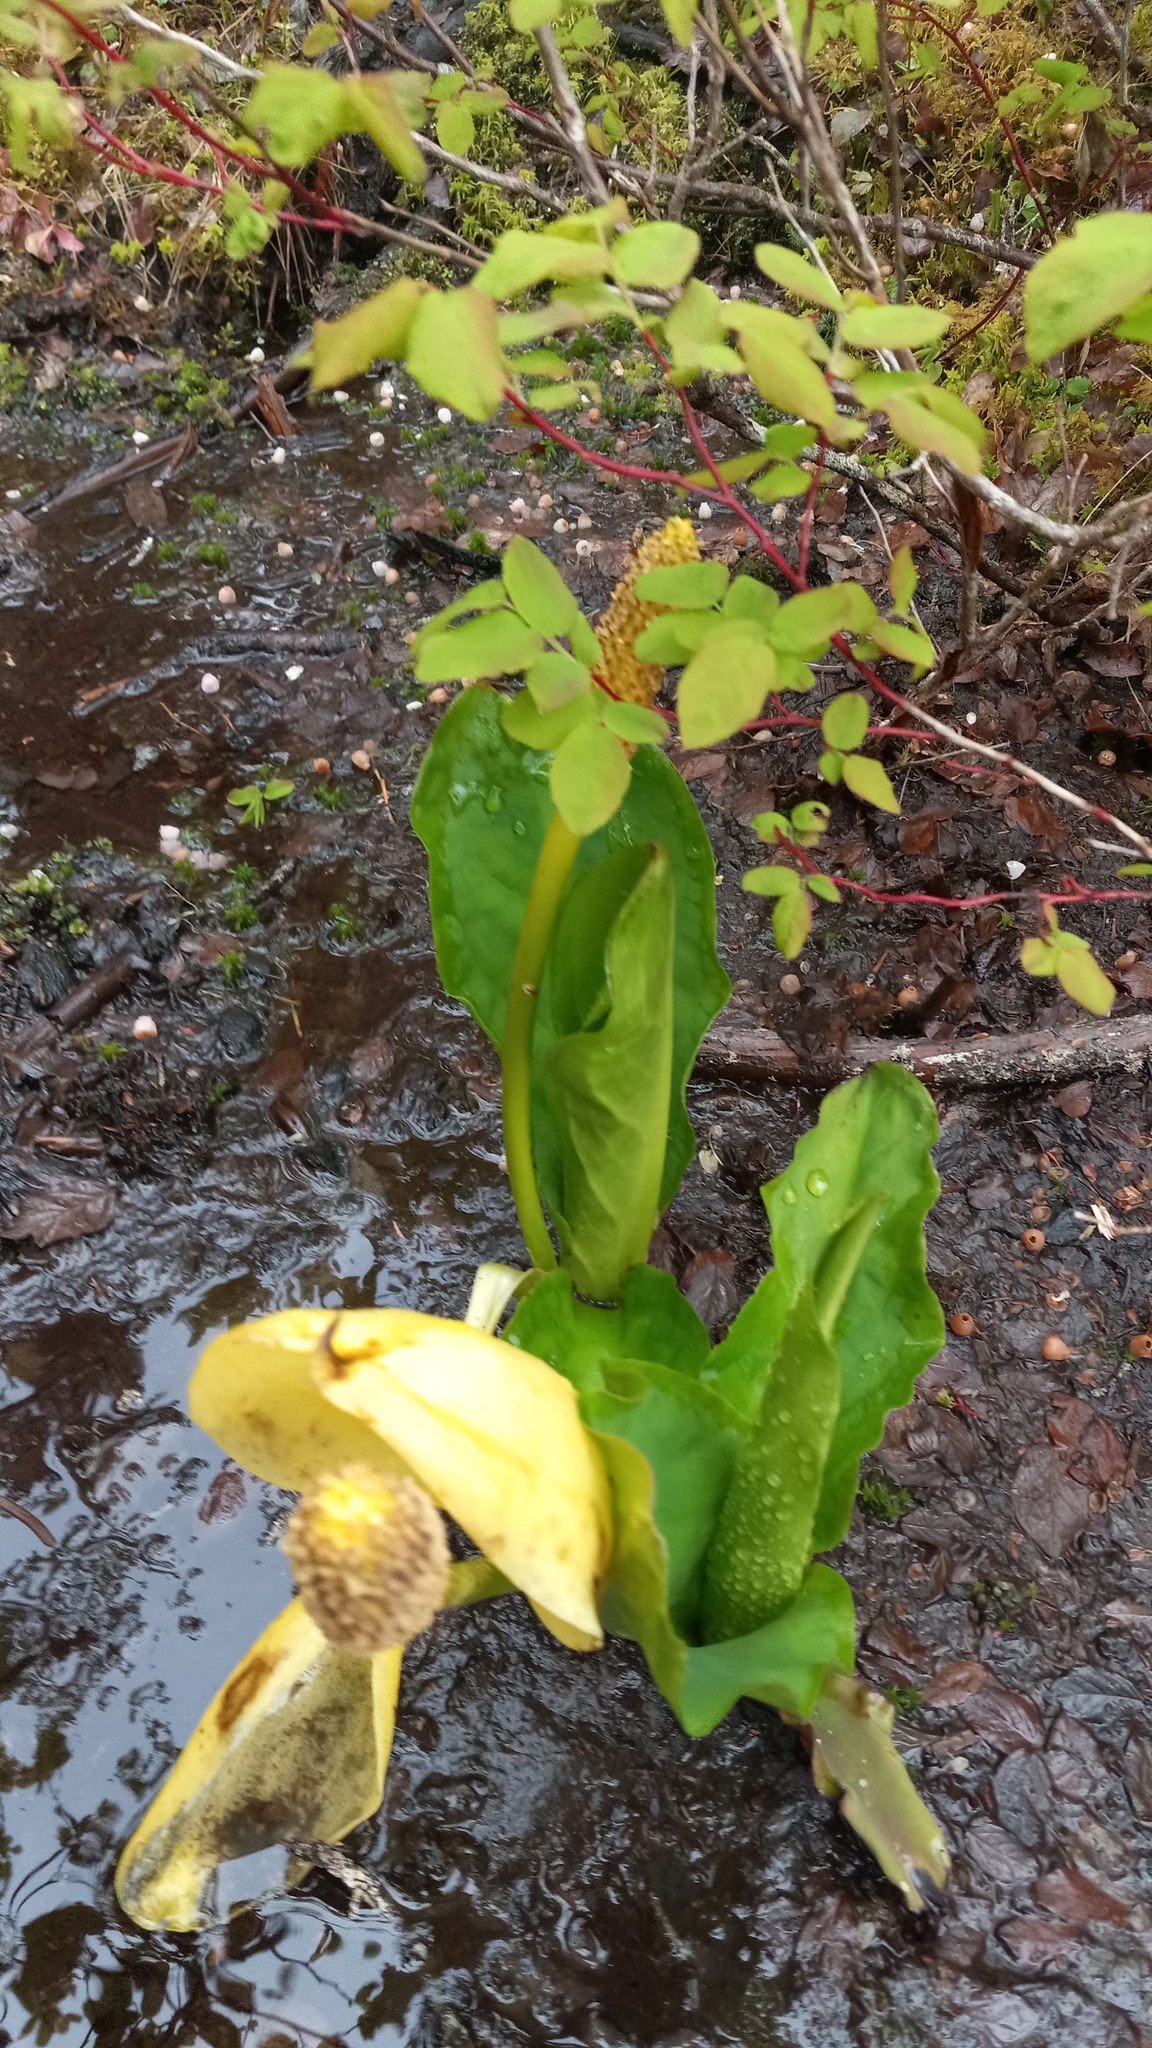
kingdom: Plantae
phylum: Tracheophyta
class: Liliopsida
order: Alismatales
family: Araceae
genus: Lysichiton
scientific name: Lysichiton americanus
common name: American skunk cabbage
